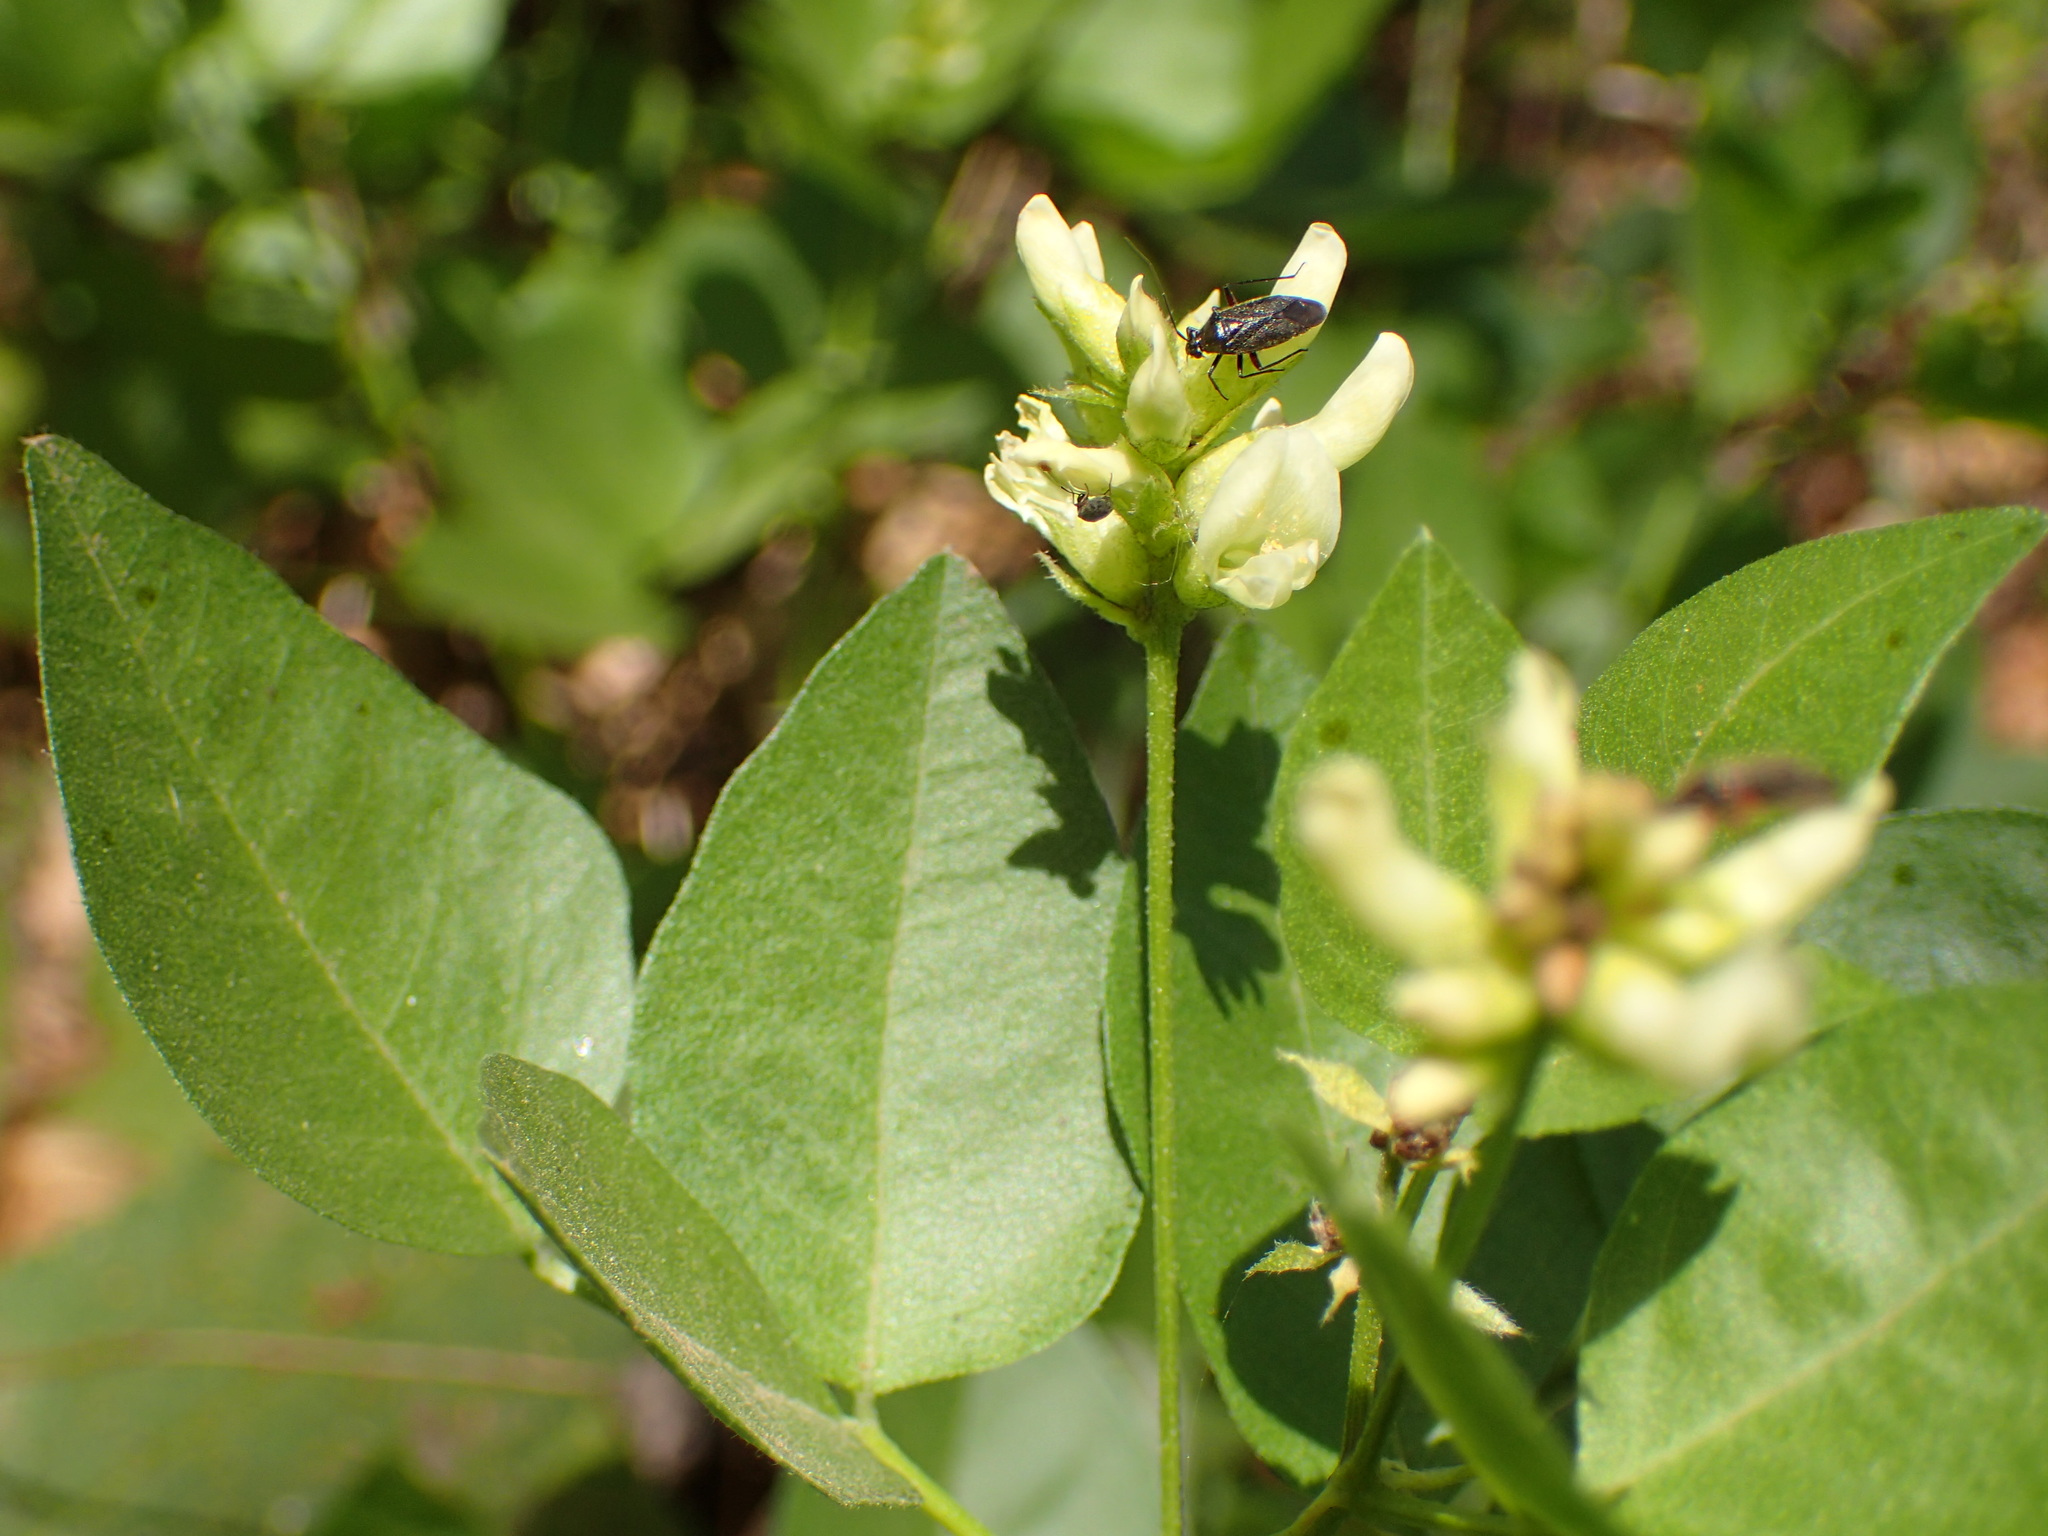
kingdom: Plantae
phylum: Tracheophyta
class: Magnoliopsida
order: Fabales
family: Fabaceae
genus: Rupertia
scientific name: Rupertia physodes
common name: California-tea
